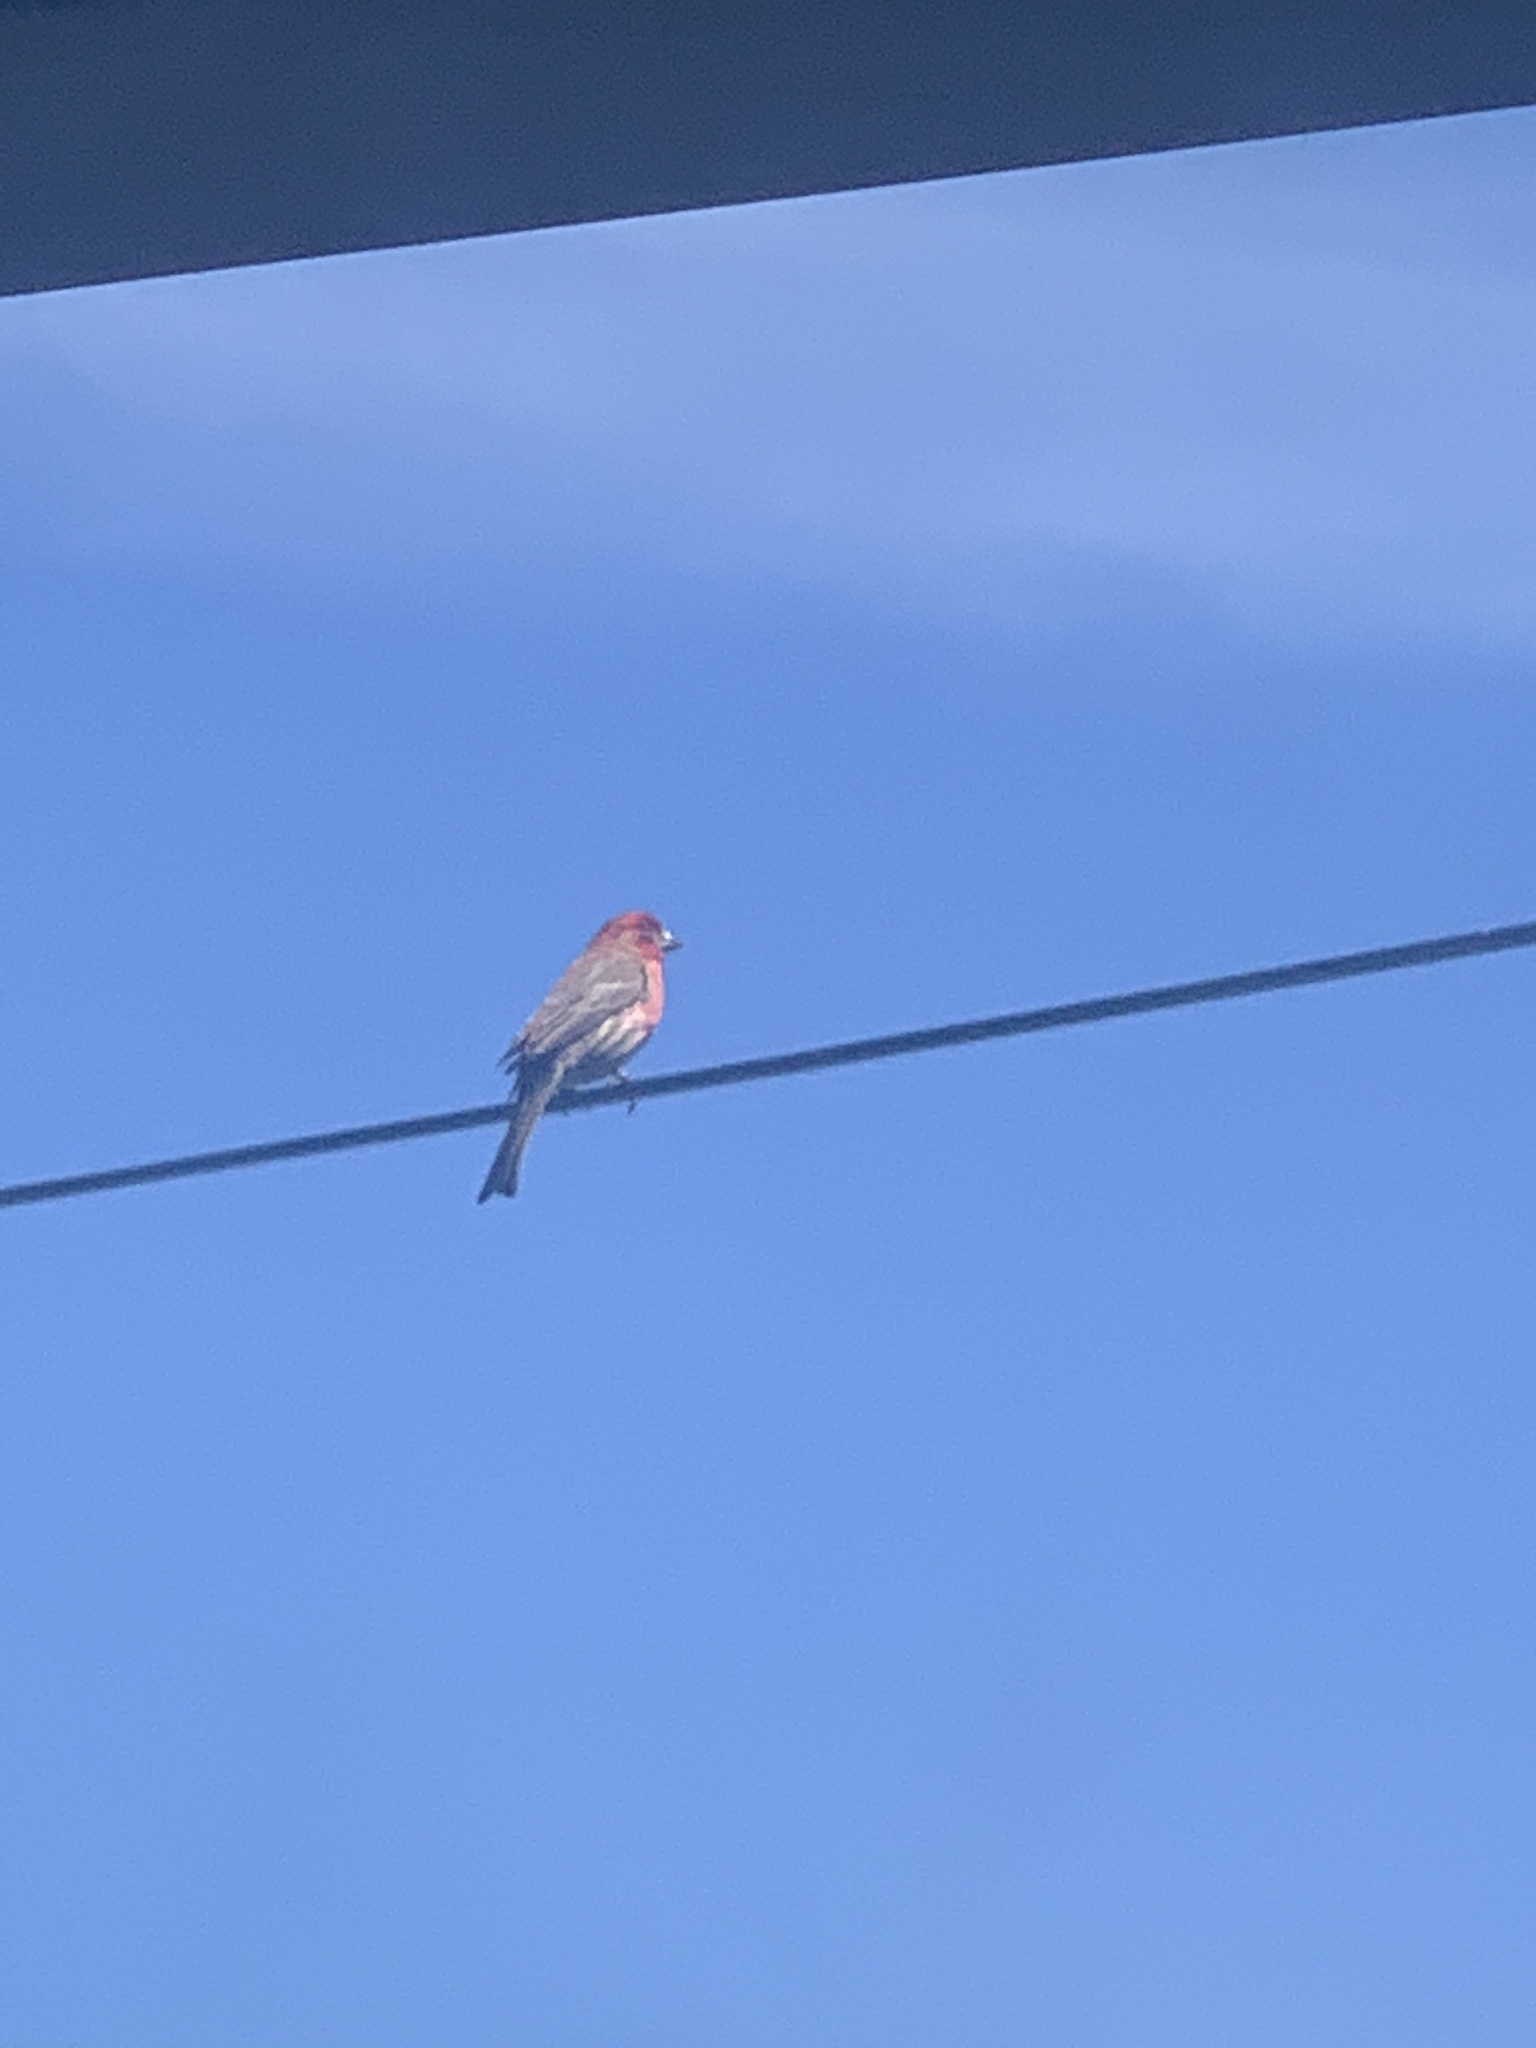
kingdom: Animalia
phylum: Chordata
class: Aves
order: Passeriformes
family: Fringillidae
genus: Haemorhous
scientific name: Haemorhous mexicanus
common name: House finch
